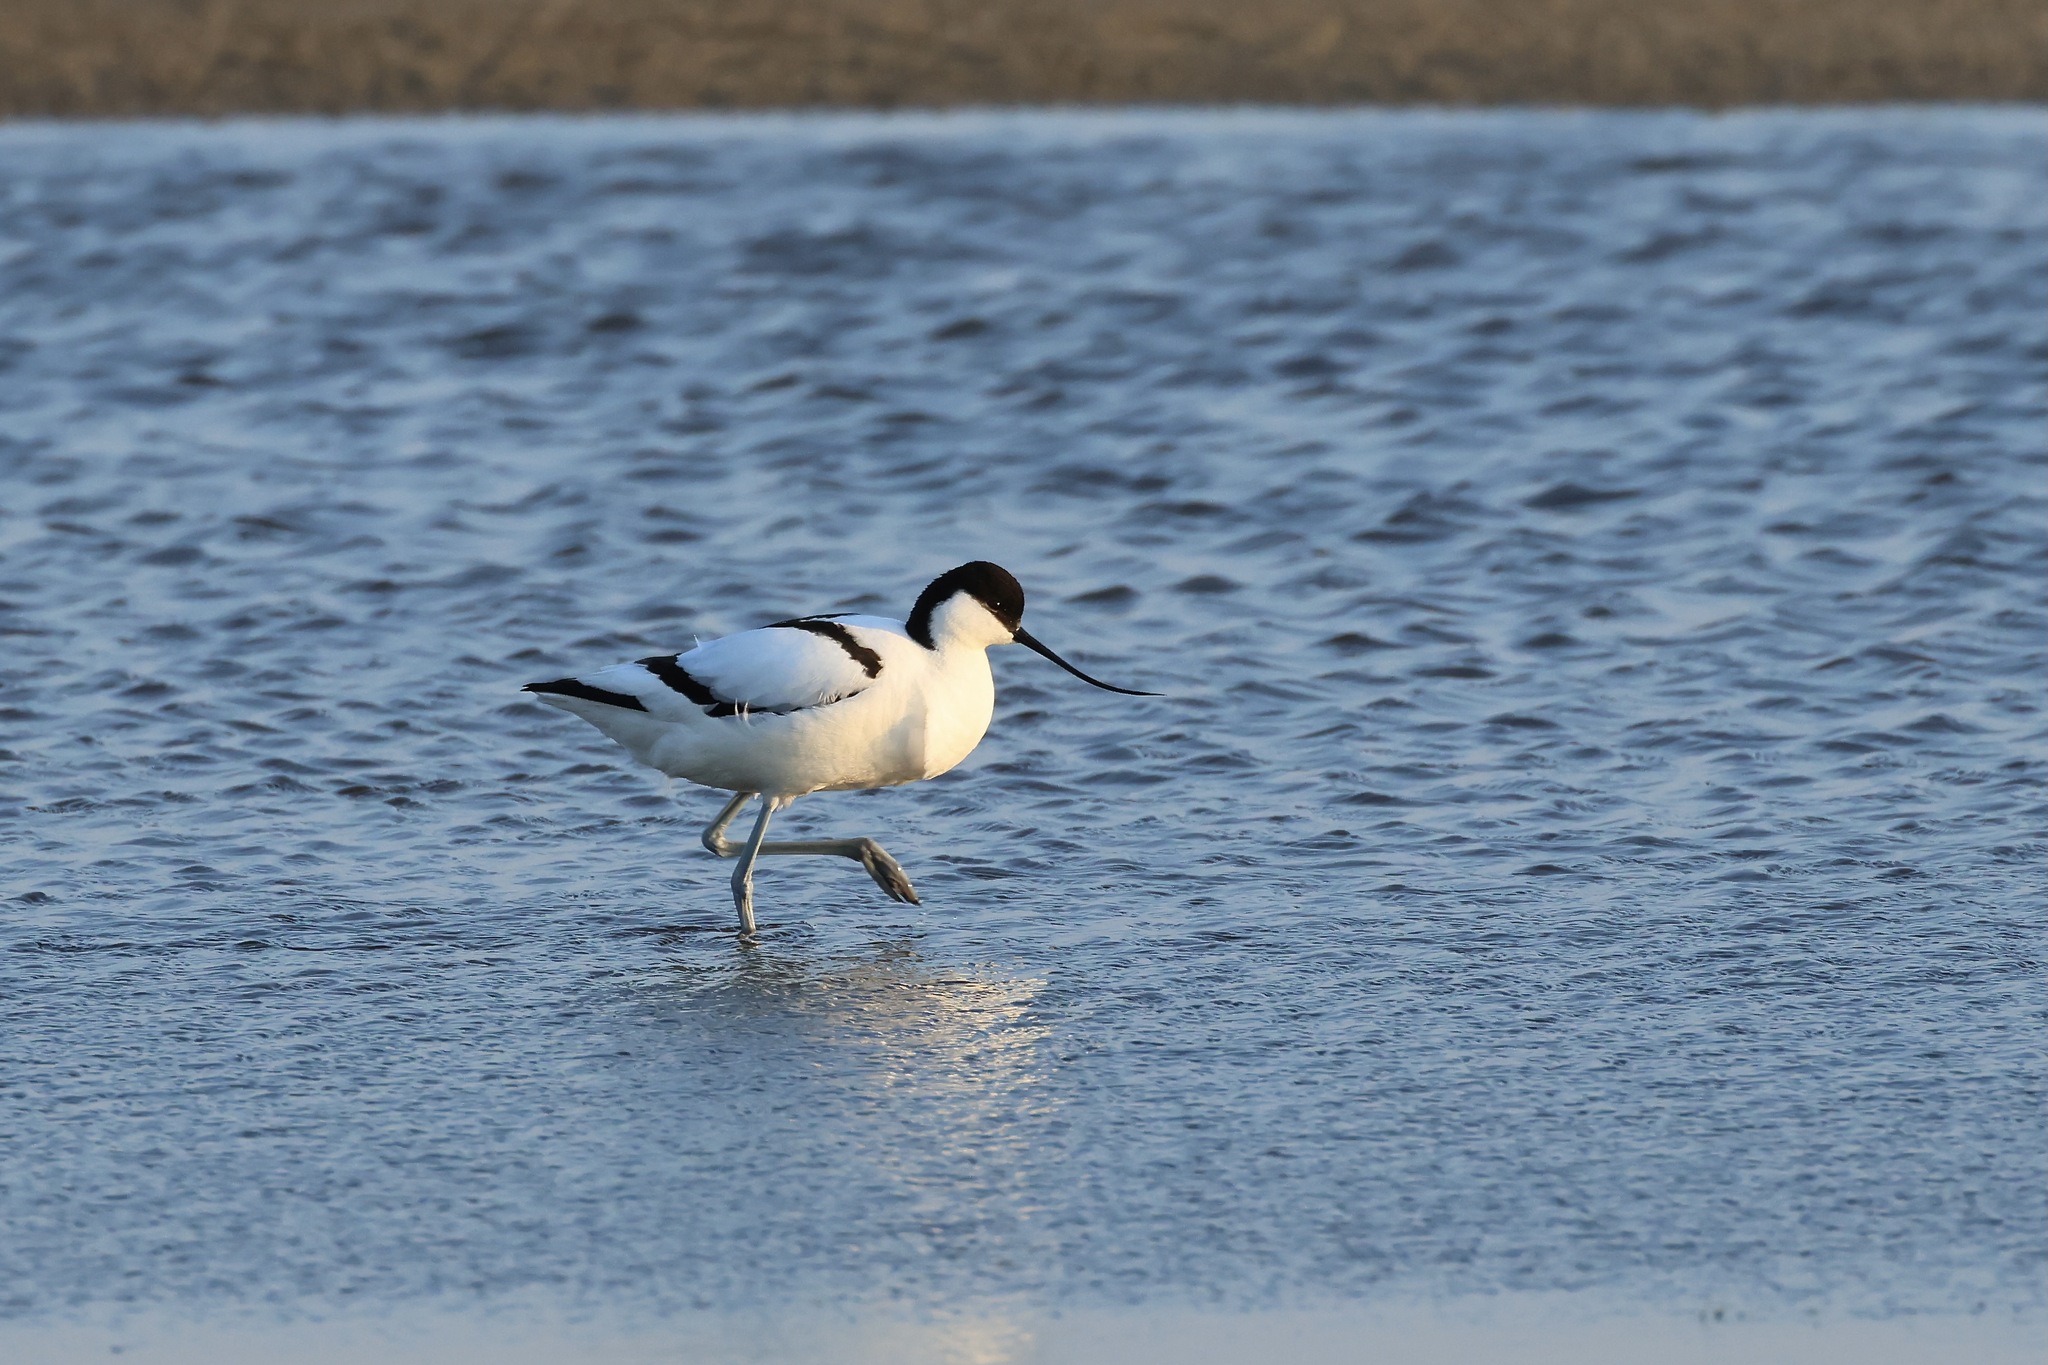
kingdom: Animalia
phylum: Chordata
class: Aves
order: Charadriiformes
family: Recurvirostridae
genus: Recurvirostra
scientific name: Recurvirostra avosetta
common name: Pied avocet
